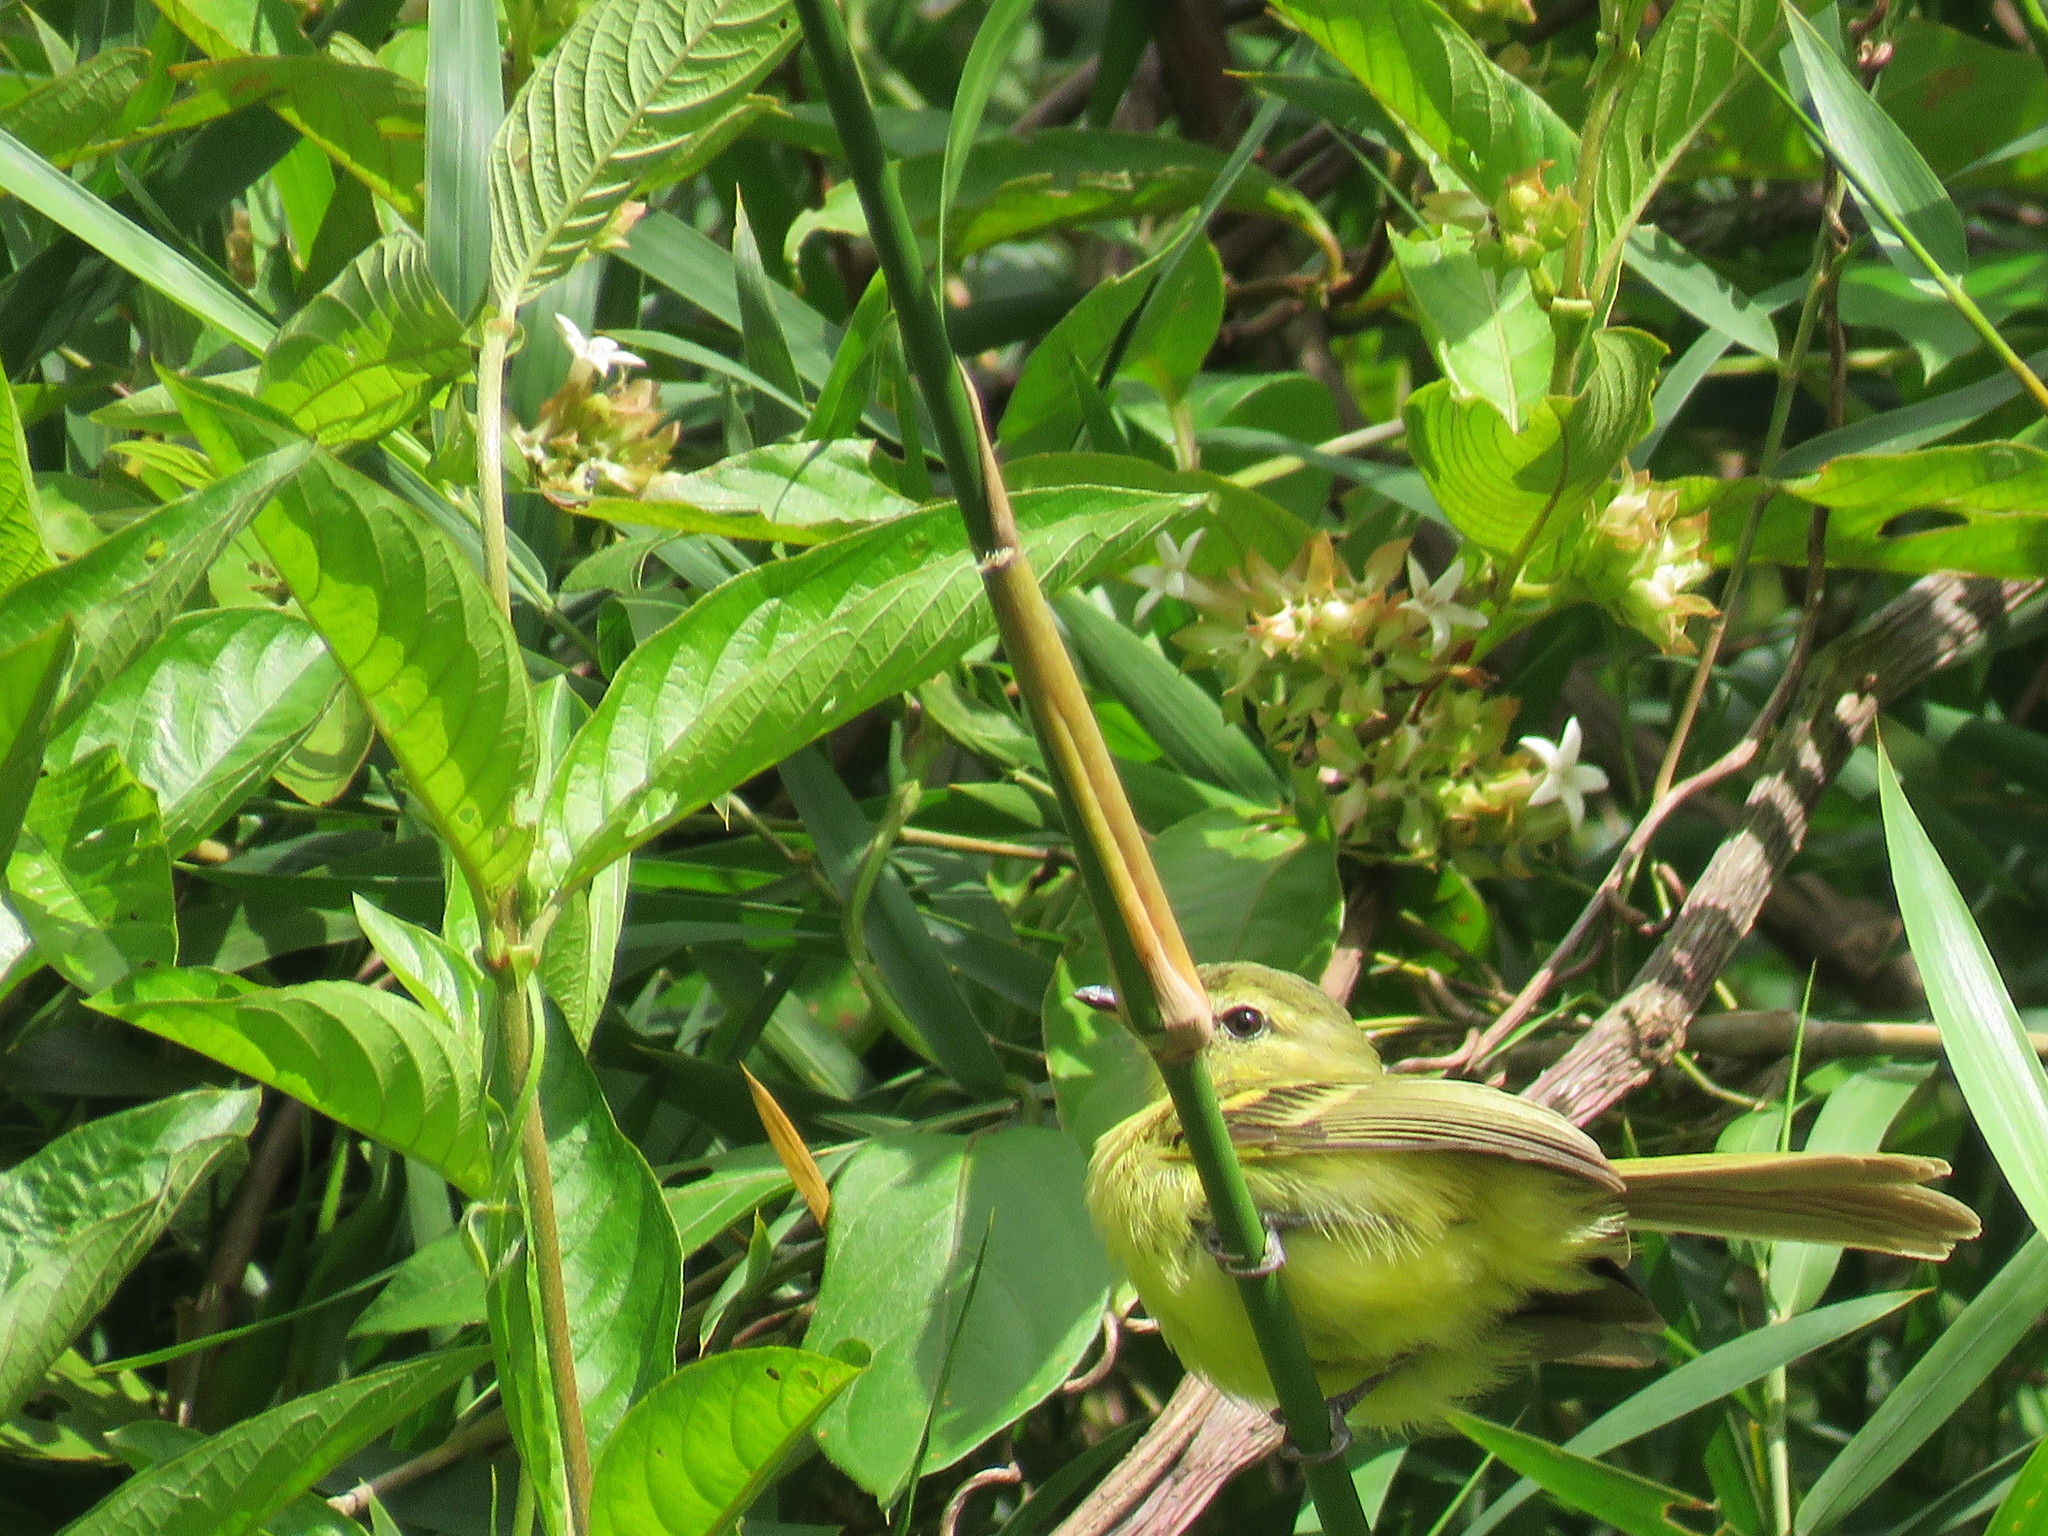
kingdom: Animalia
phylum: Chordata
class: Aves
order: Passeriformes
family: Tyrannidae
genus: Capsiempis
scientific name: Capsiempis flaveola
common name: Yellow tyrannulet
